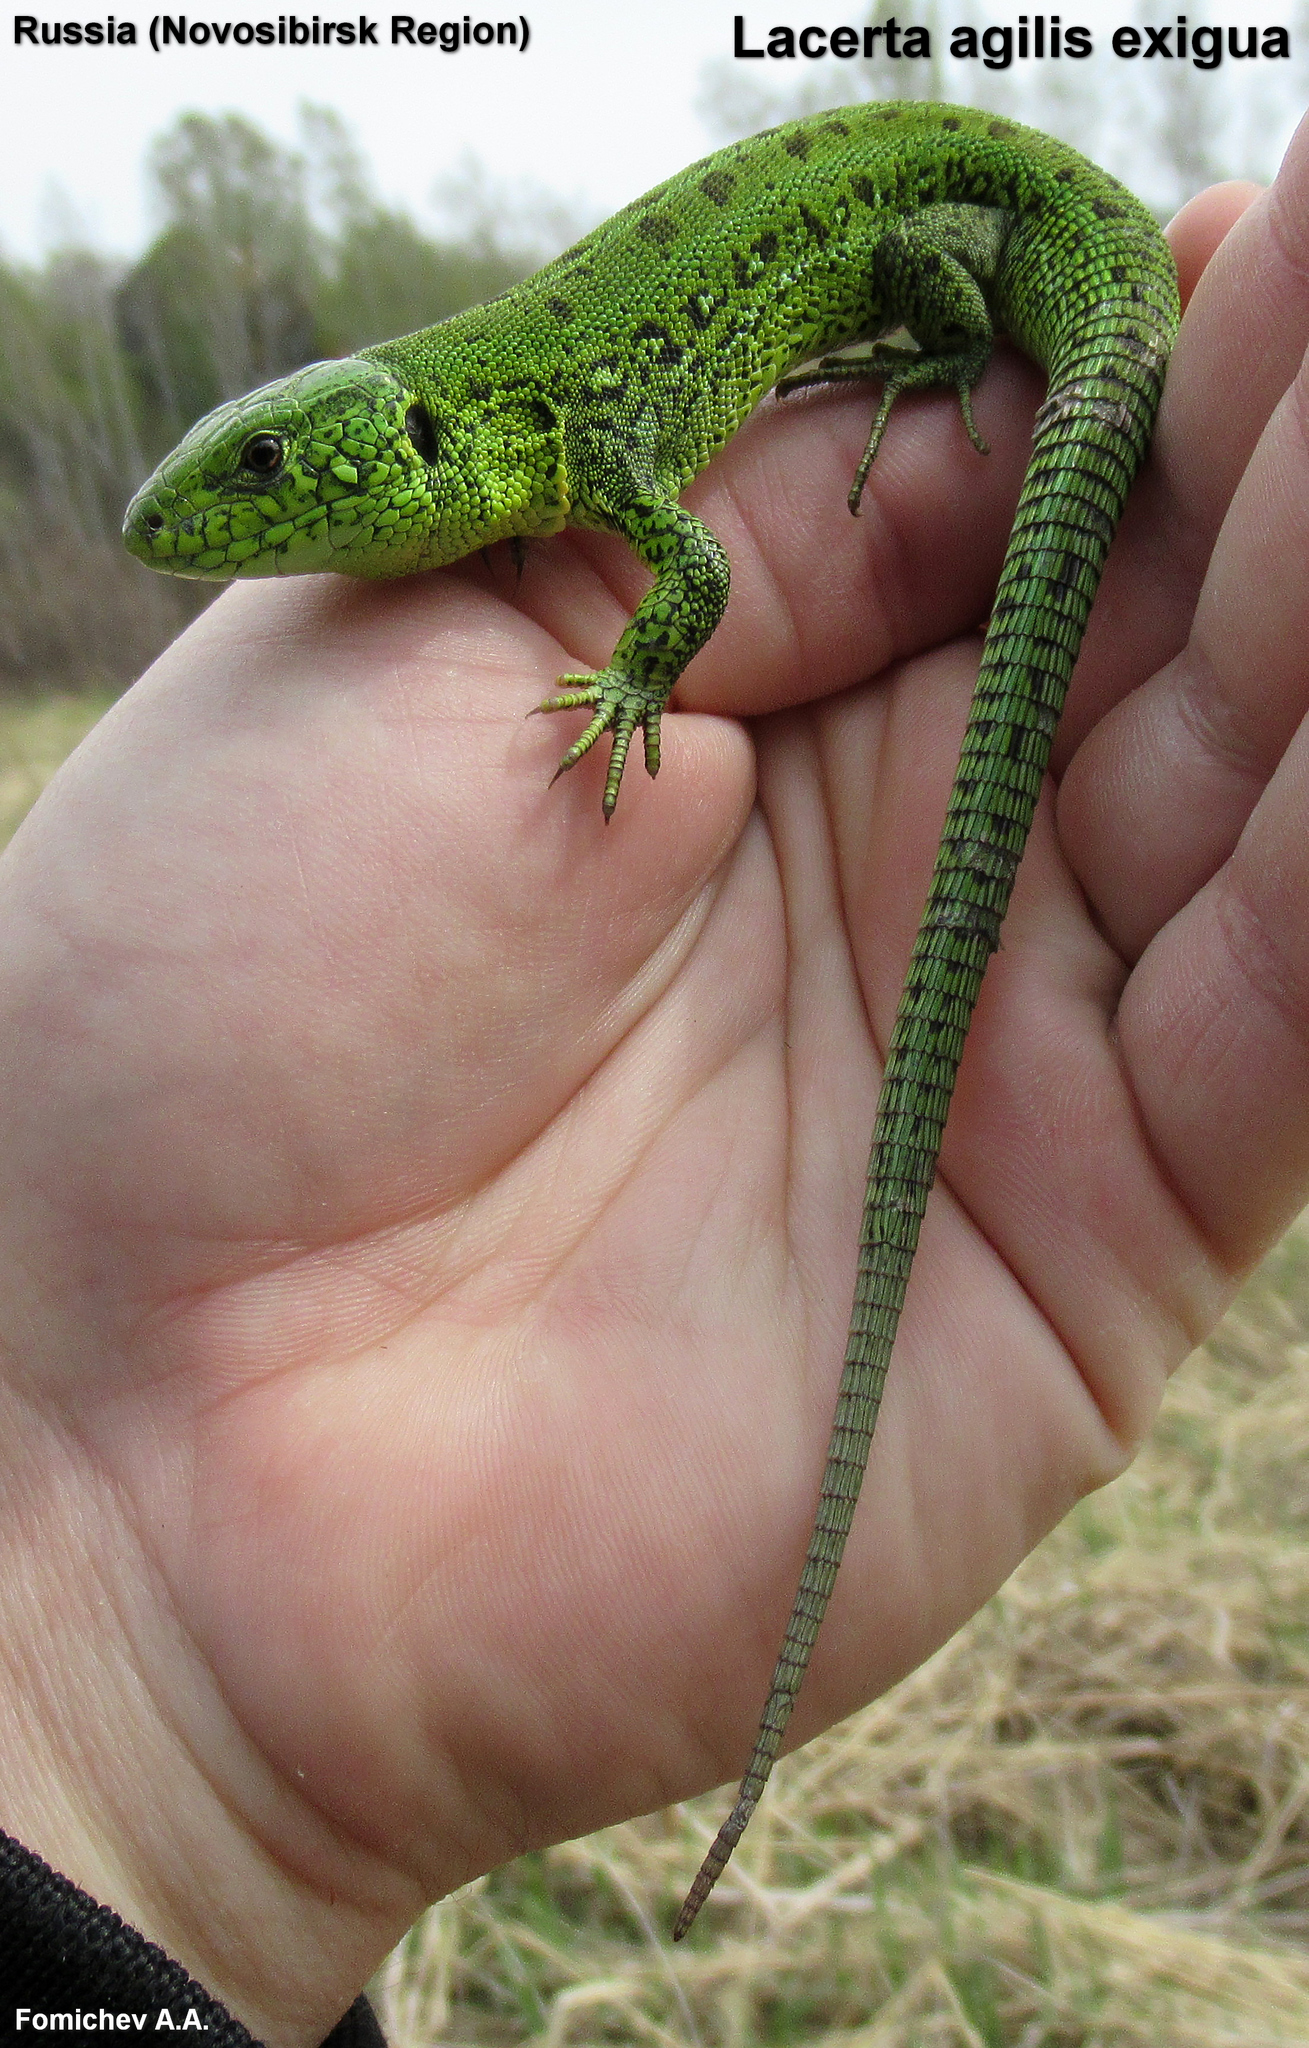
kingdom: Animalia
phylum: Chordata
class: Squamata
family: Lacertidae
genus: Lacerta
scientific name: Lacerta agilis
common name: Sand lizard
